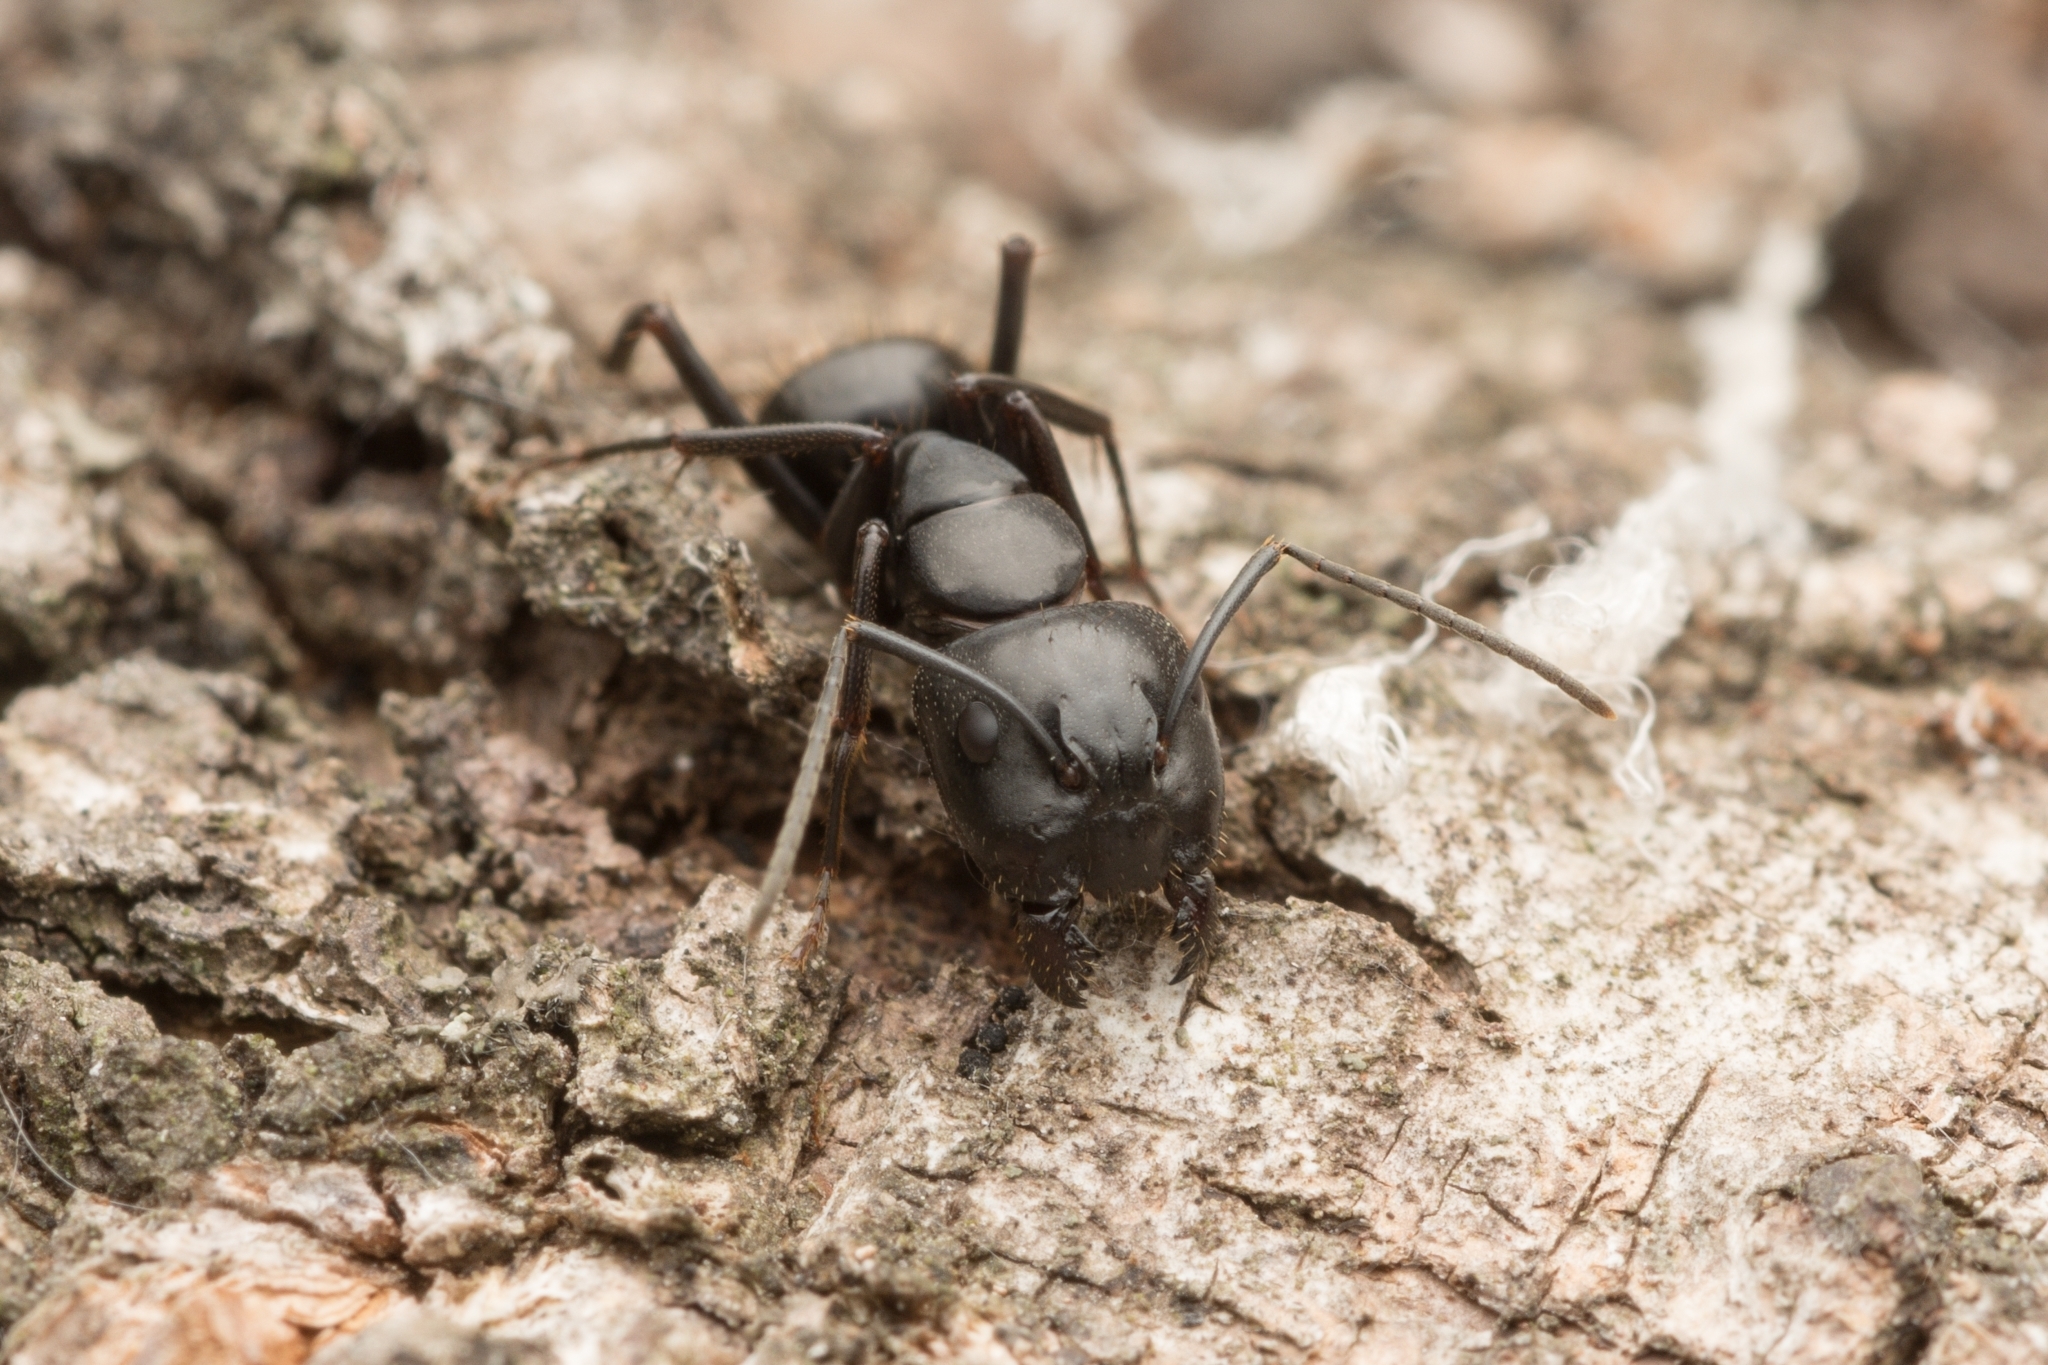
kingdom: Animalia
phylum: Arthropoda
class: Insecta
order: Hymenoptera
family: Formicidae
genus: Camponotus
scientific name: Camponotus concavus
